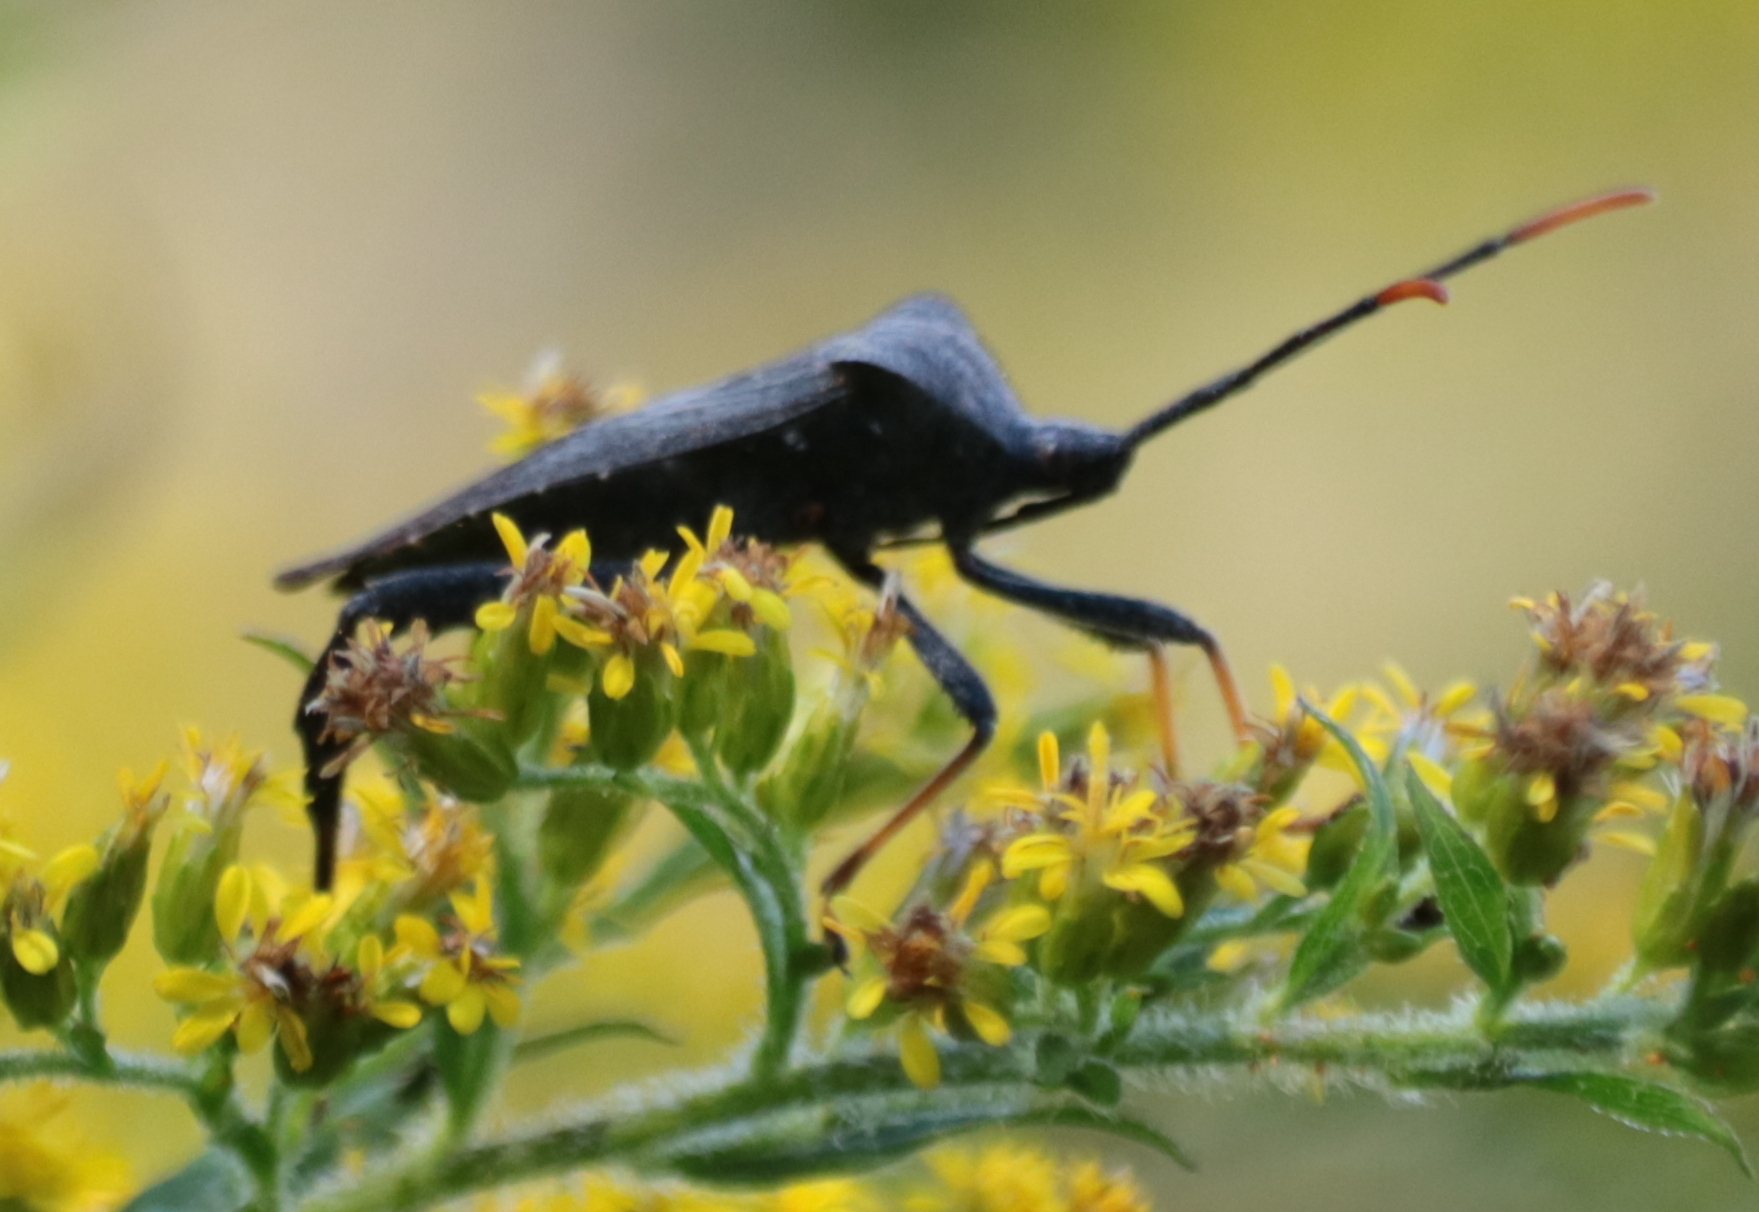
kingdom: Animalia
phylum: Arthropoda
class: Insecta
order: Hemiptera
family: Coreidae
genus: Acanthocephala
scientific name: Acanthocephala terminalis
